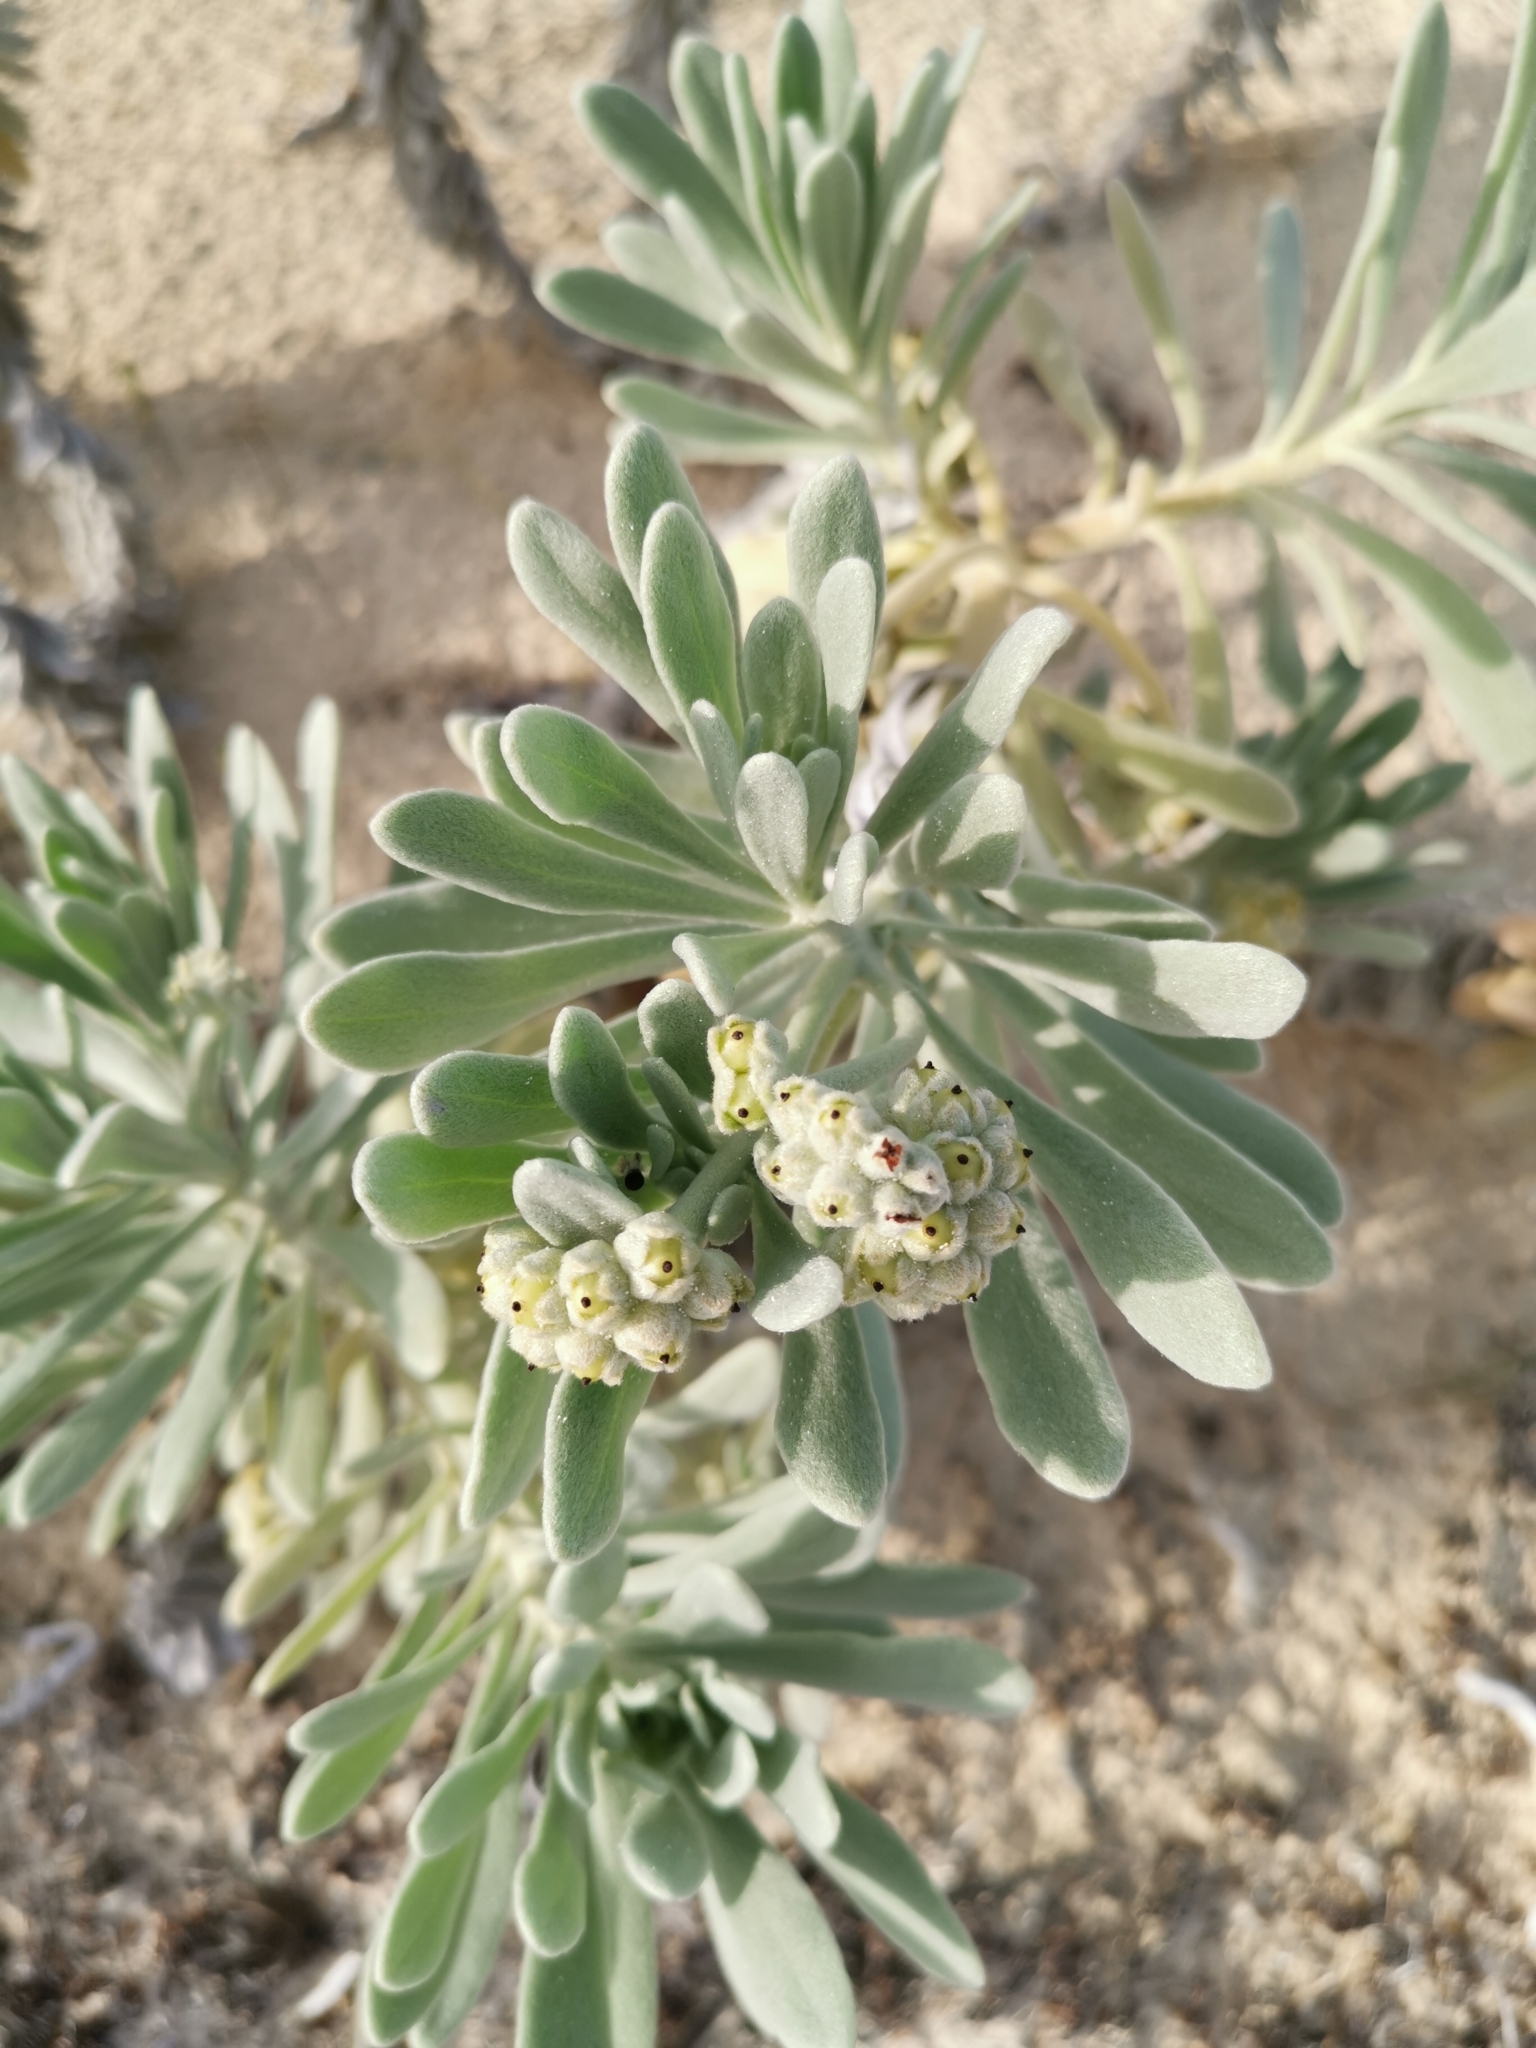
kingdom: Plantae
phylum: Tracheophyta
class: Magnoliopsida
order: Boraginales
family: Heliotropiaceae
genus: Tournefortia
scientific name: Tournefortia gnaphalodes
